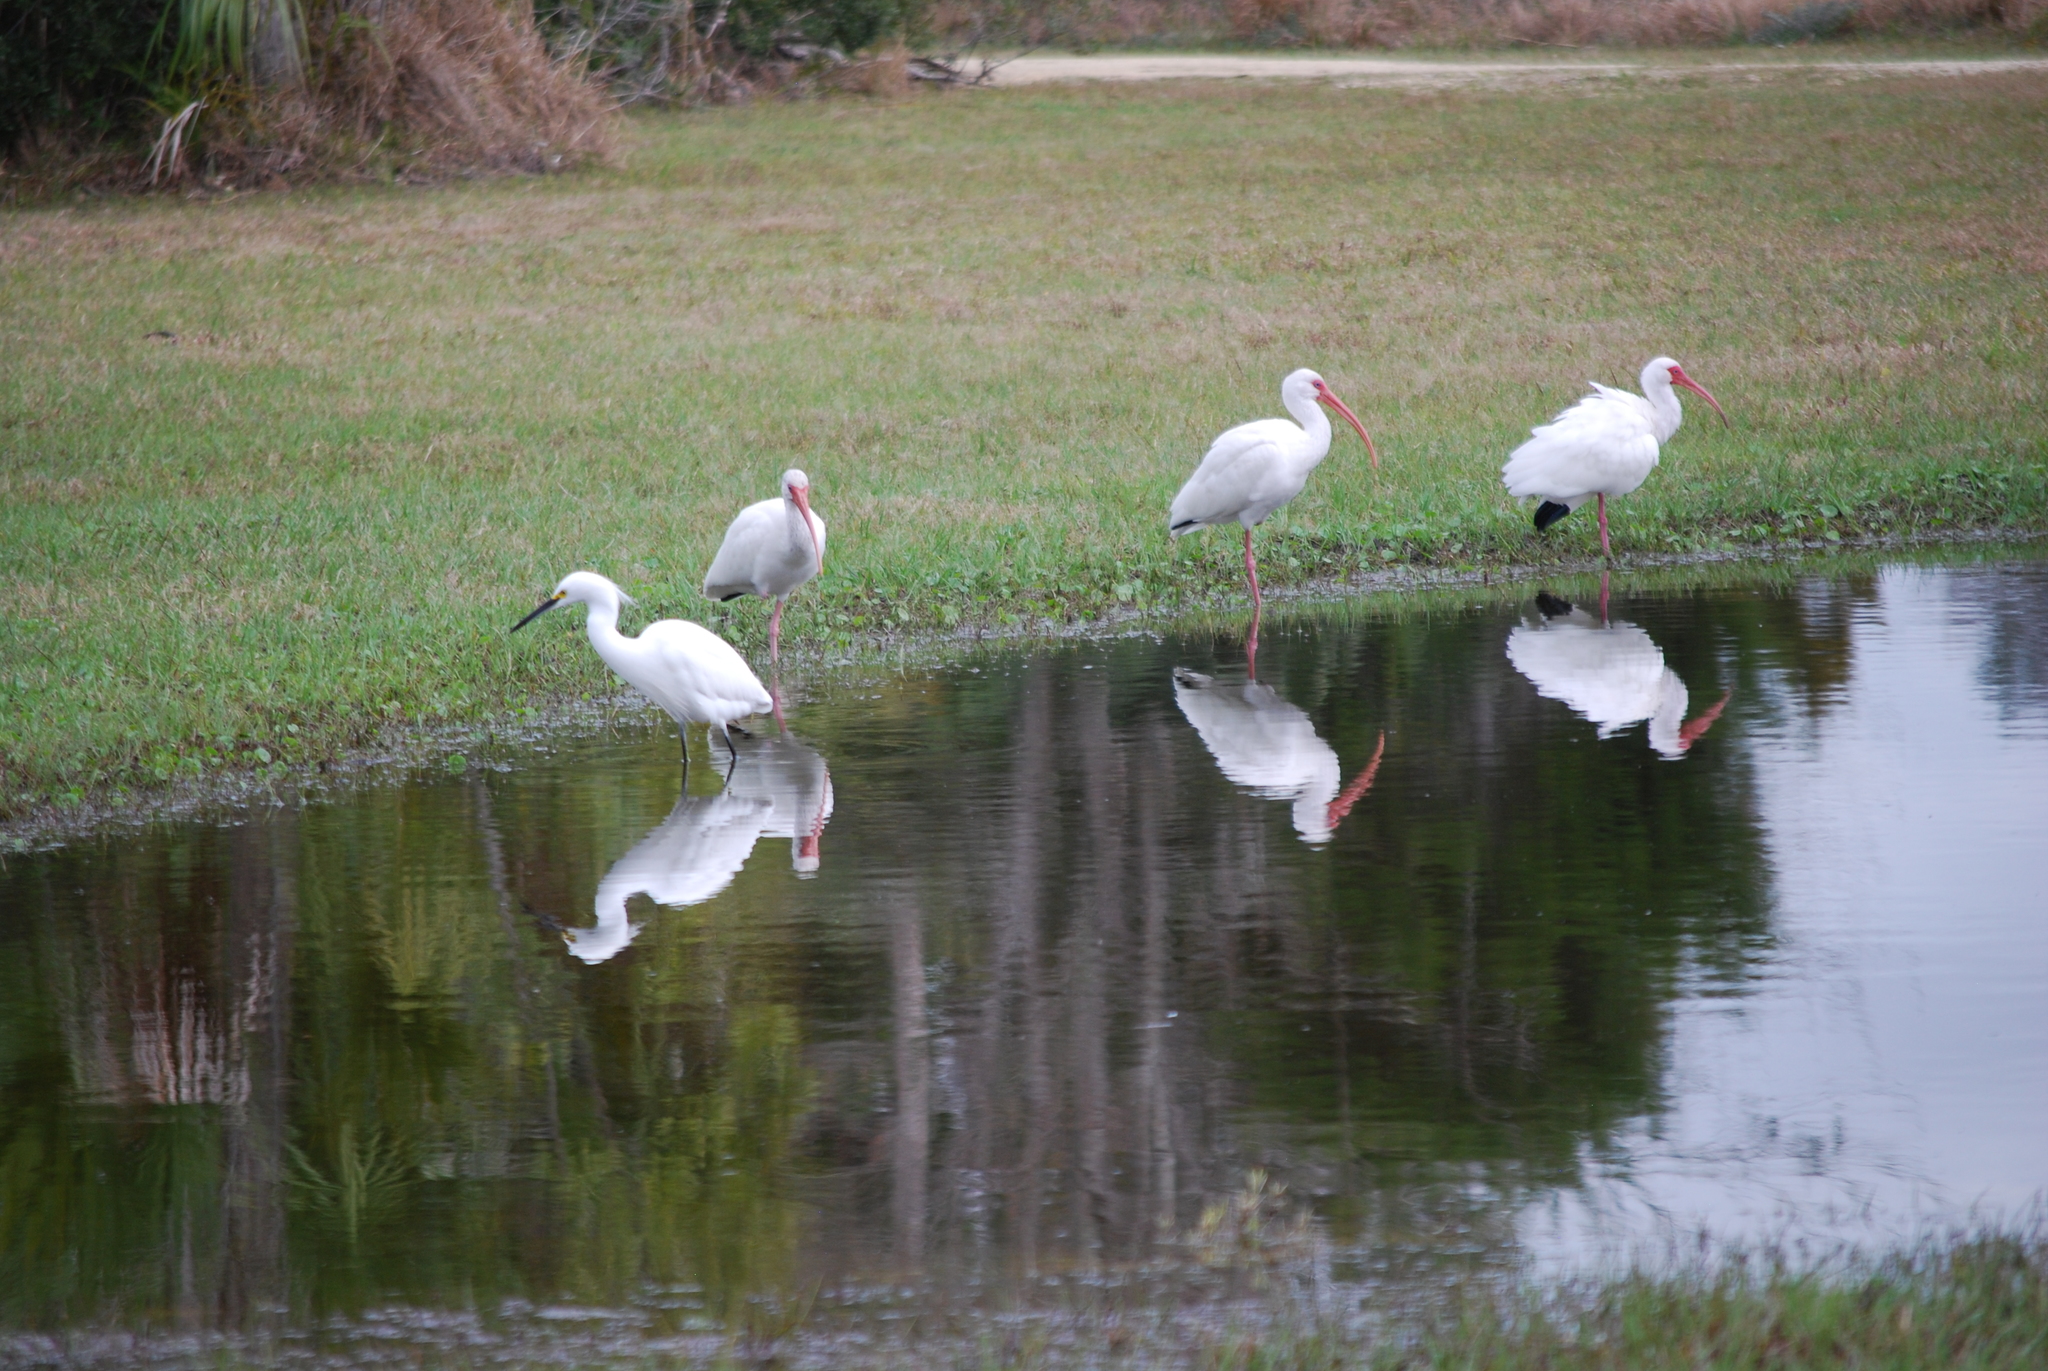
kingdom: Animalia
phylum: Chordata
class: Aves
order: Pelecaniformes
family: Threskiornithidae
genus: Eudocimus
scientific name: Eudocimus albus
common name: White ibis
